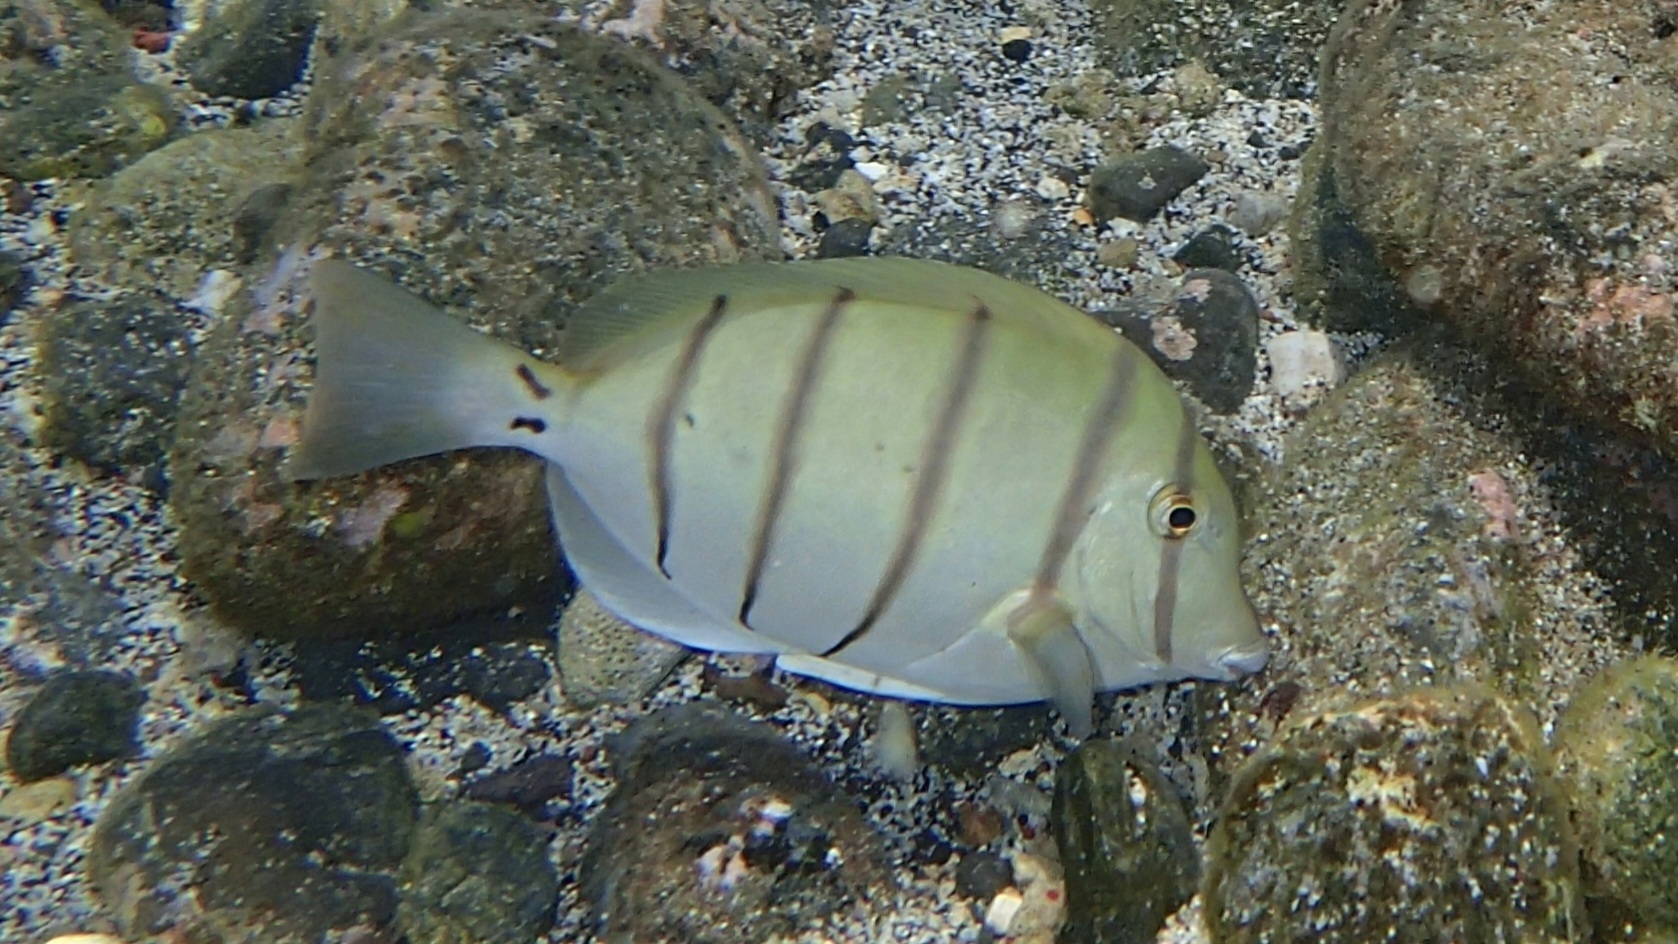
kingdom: Animalia
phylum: Chordata
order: Perciformes
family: Acanthuridae
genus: Acanthurus
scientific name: Acanthurus triostegus
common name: Convict surgeonfish
